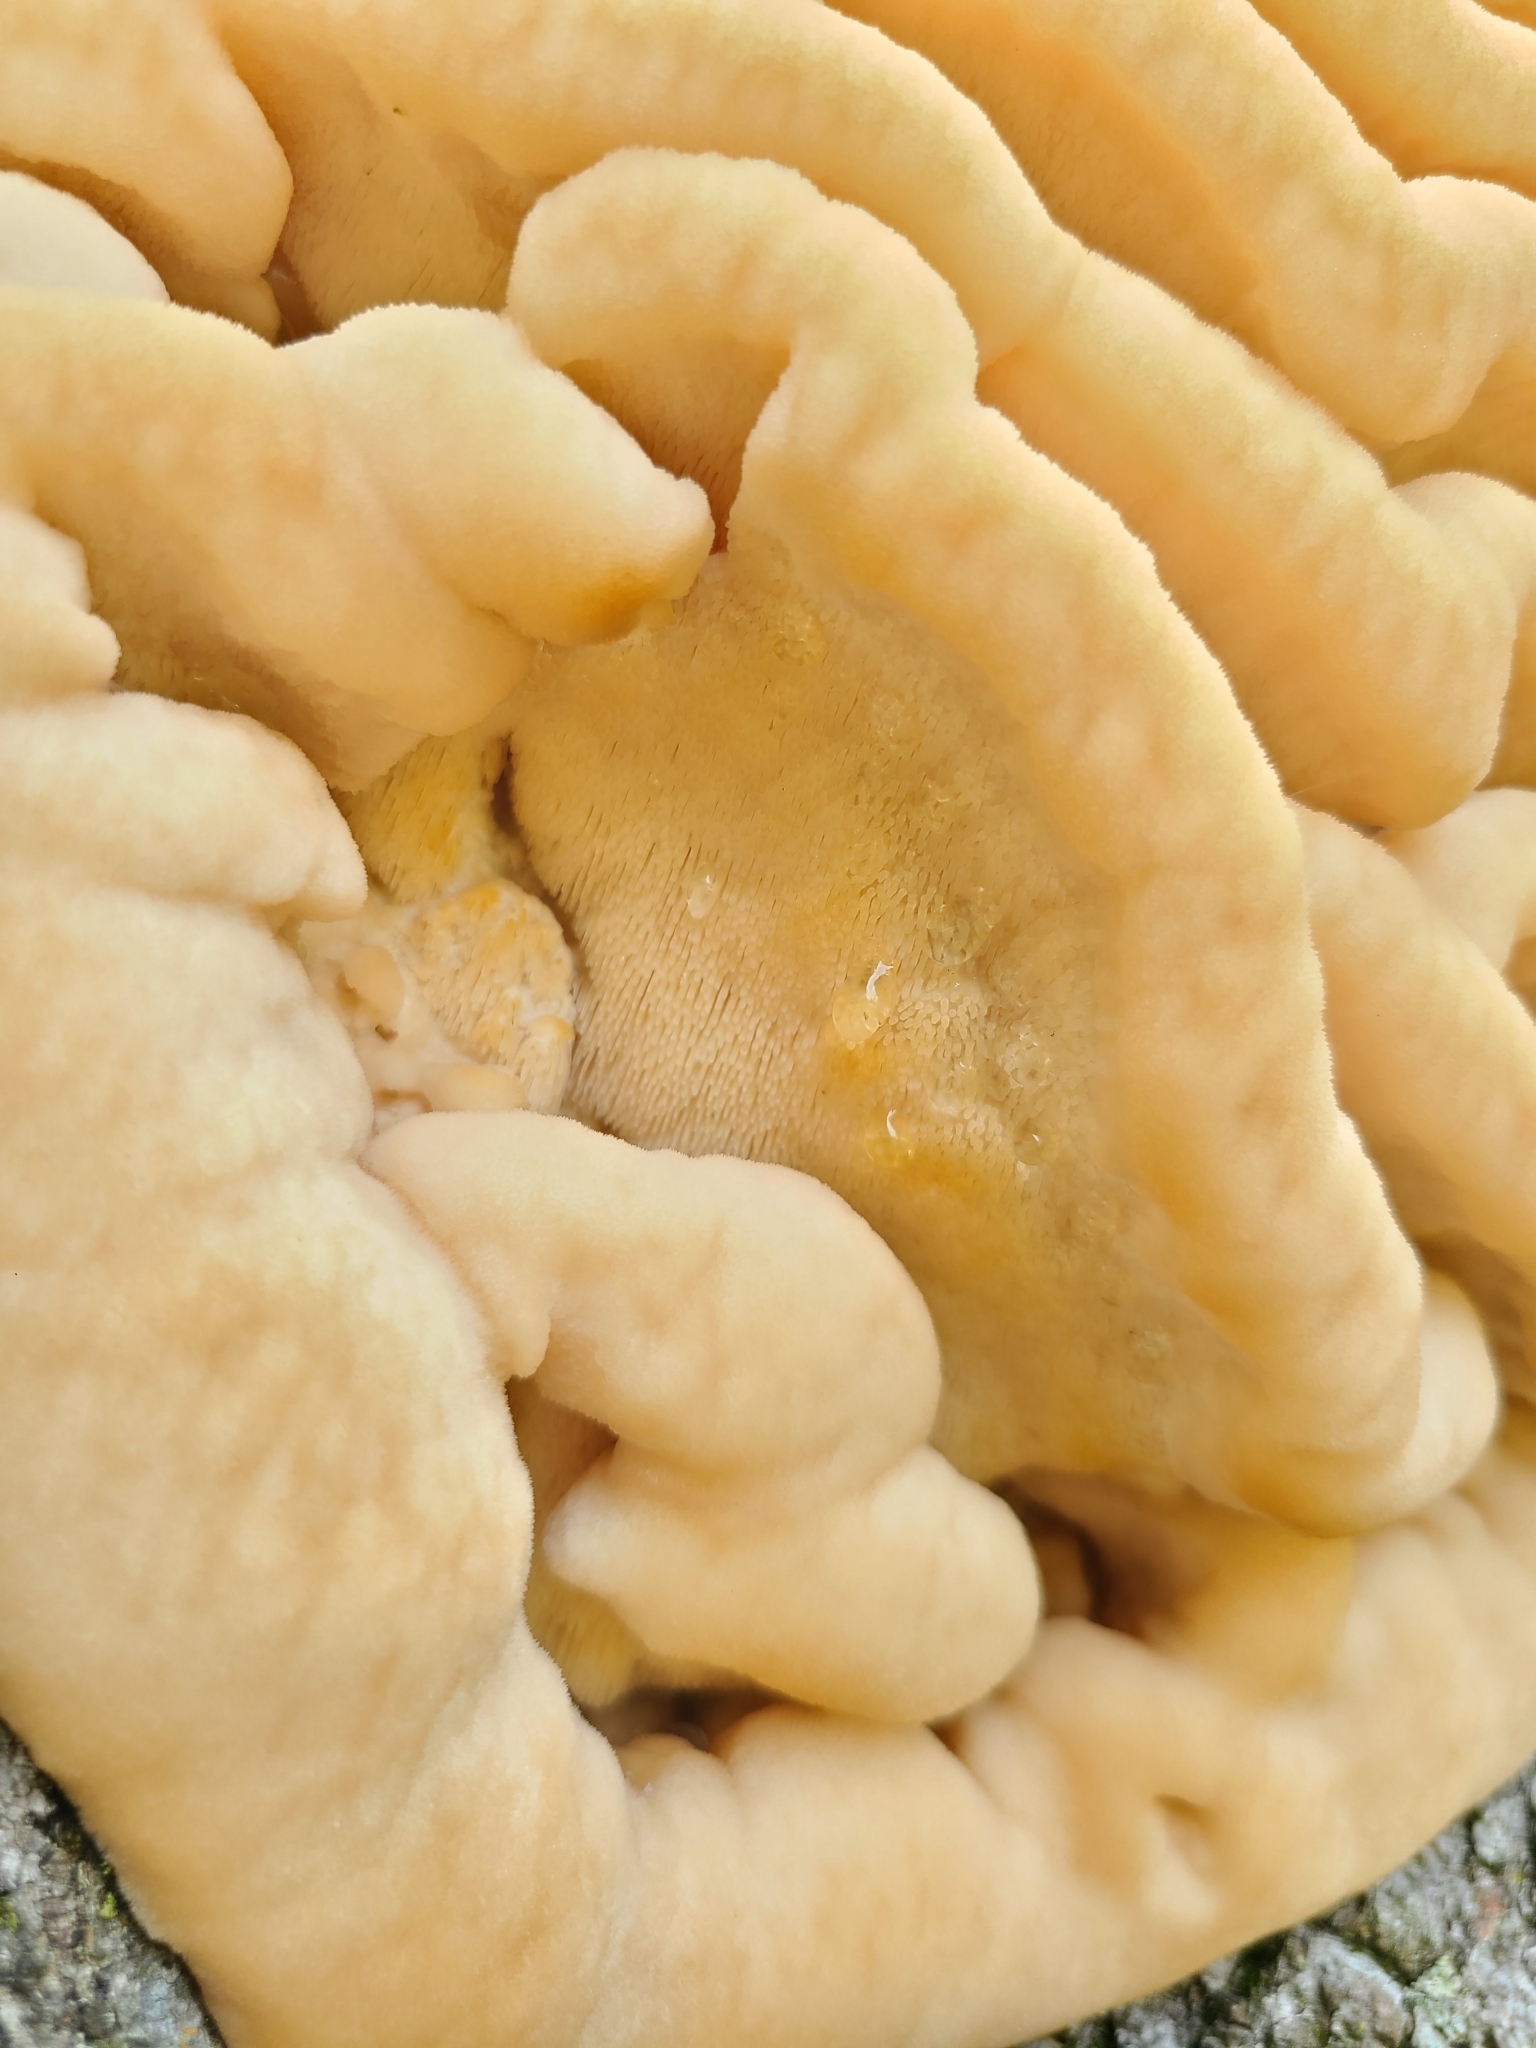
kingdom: Fungi
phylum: Basidiomycota
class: Agaricomycetes
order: Polyporales
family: Meruliaceae
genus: Climacodon
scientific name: Climacodon septentrionalis
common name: Northern tooth
